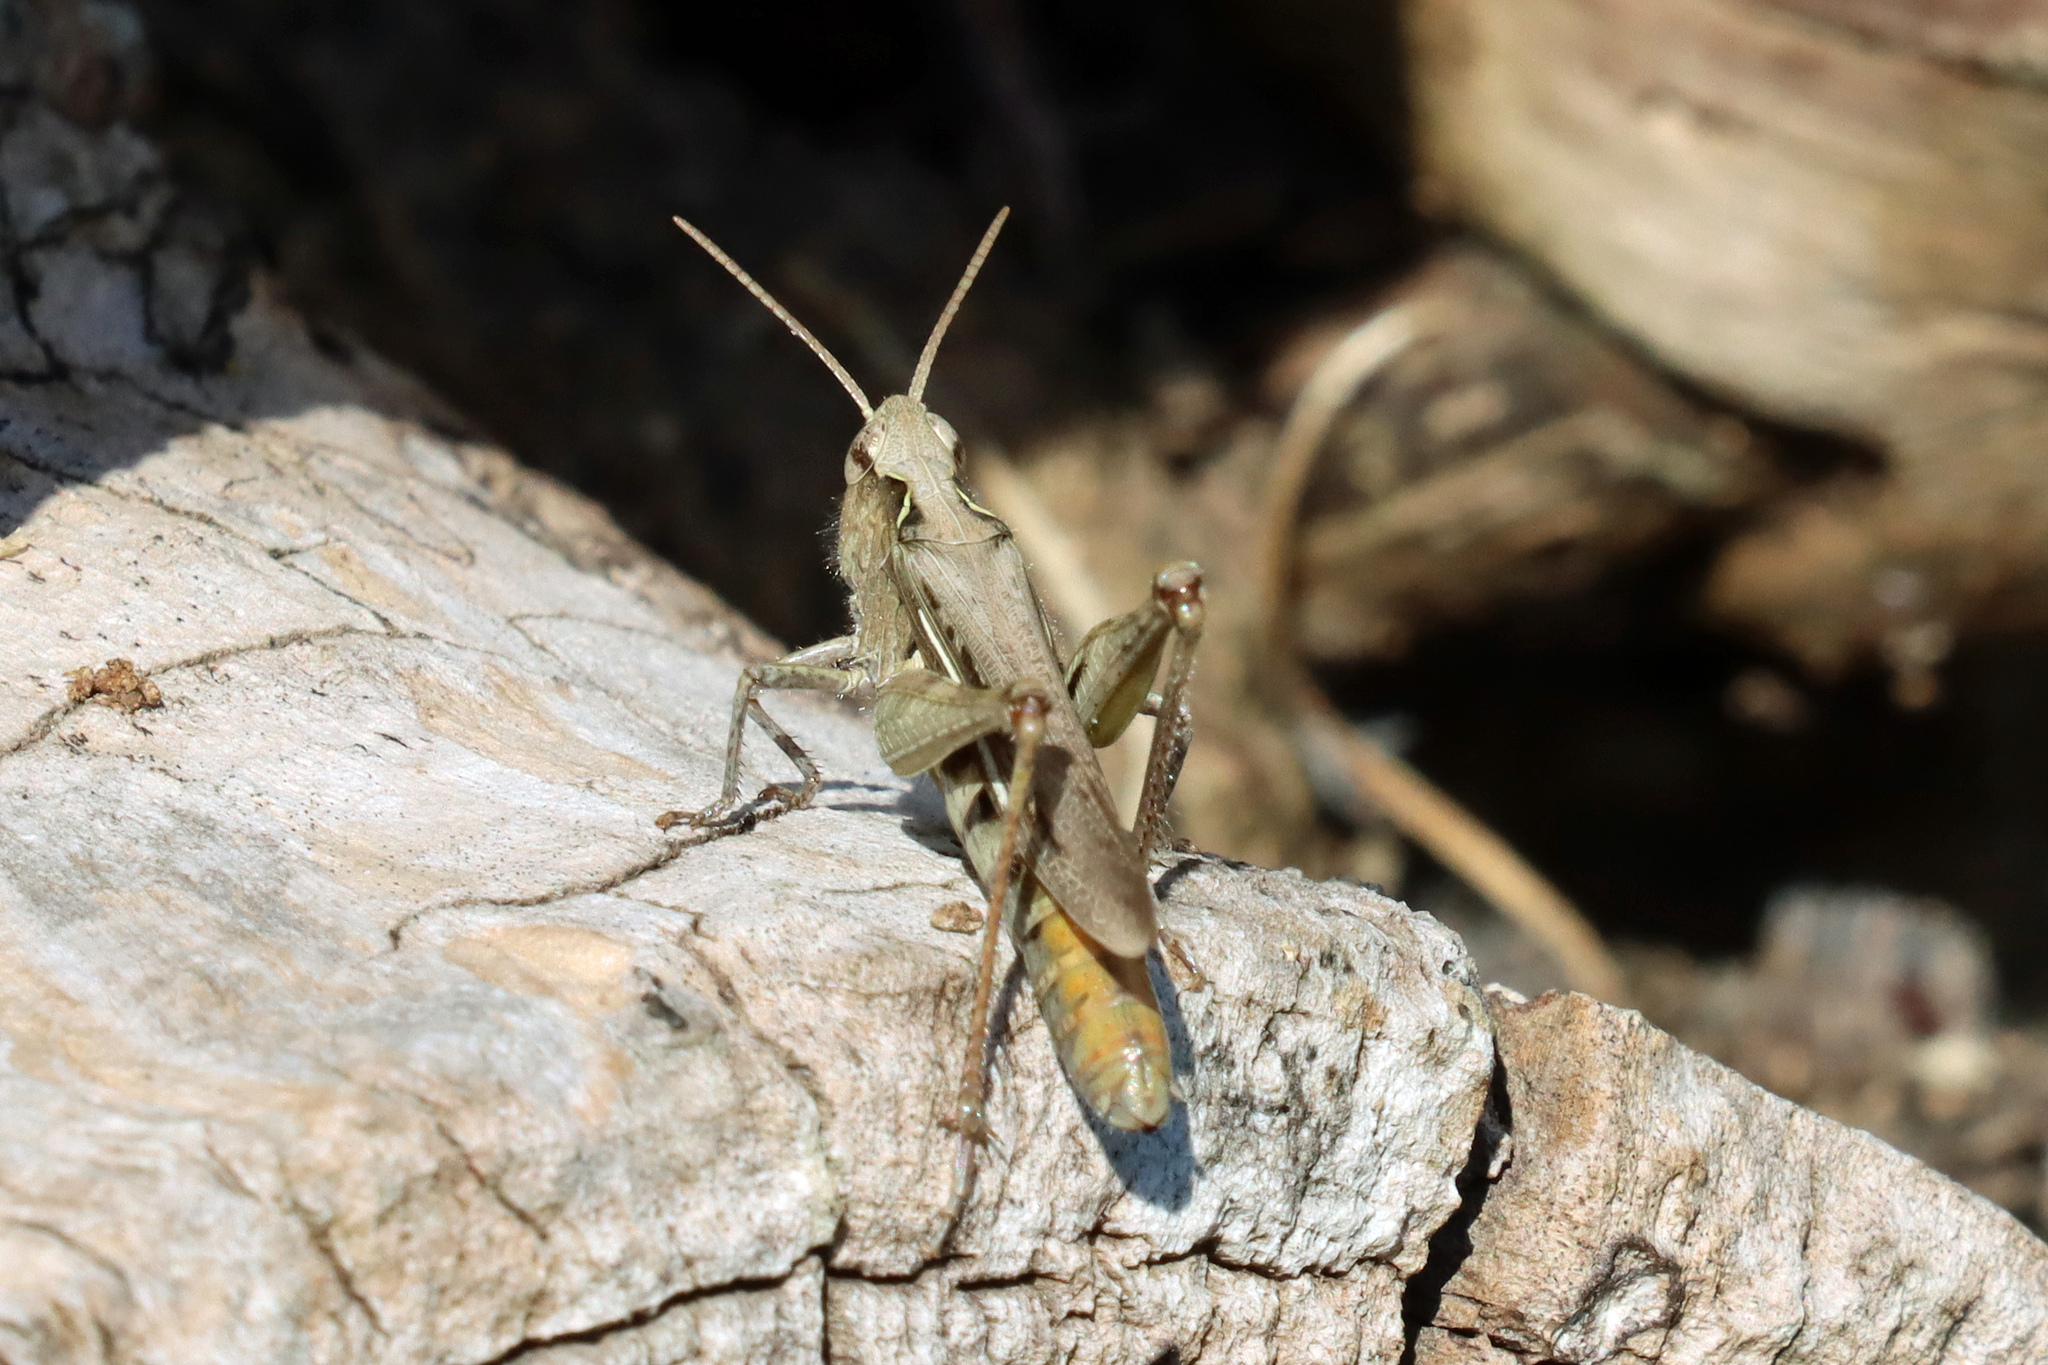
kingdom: Animalia
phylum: Arthropoda
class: Insecta
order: Orthoptera
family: Acrididae
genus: Chorthippus
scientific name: Chorthippus brunneus
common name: Field grasshopper
